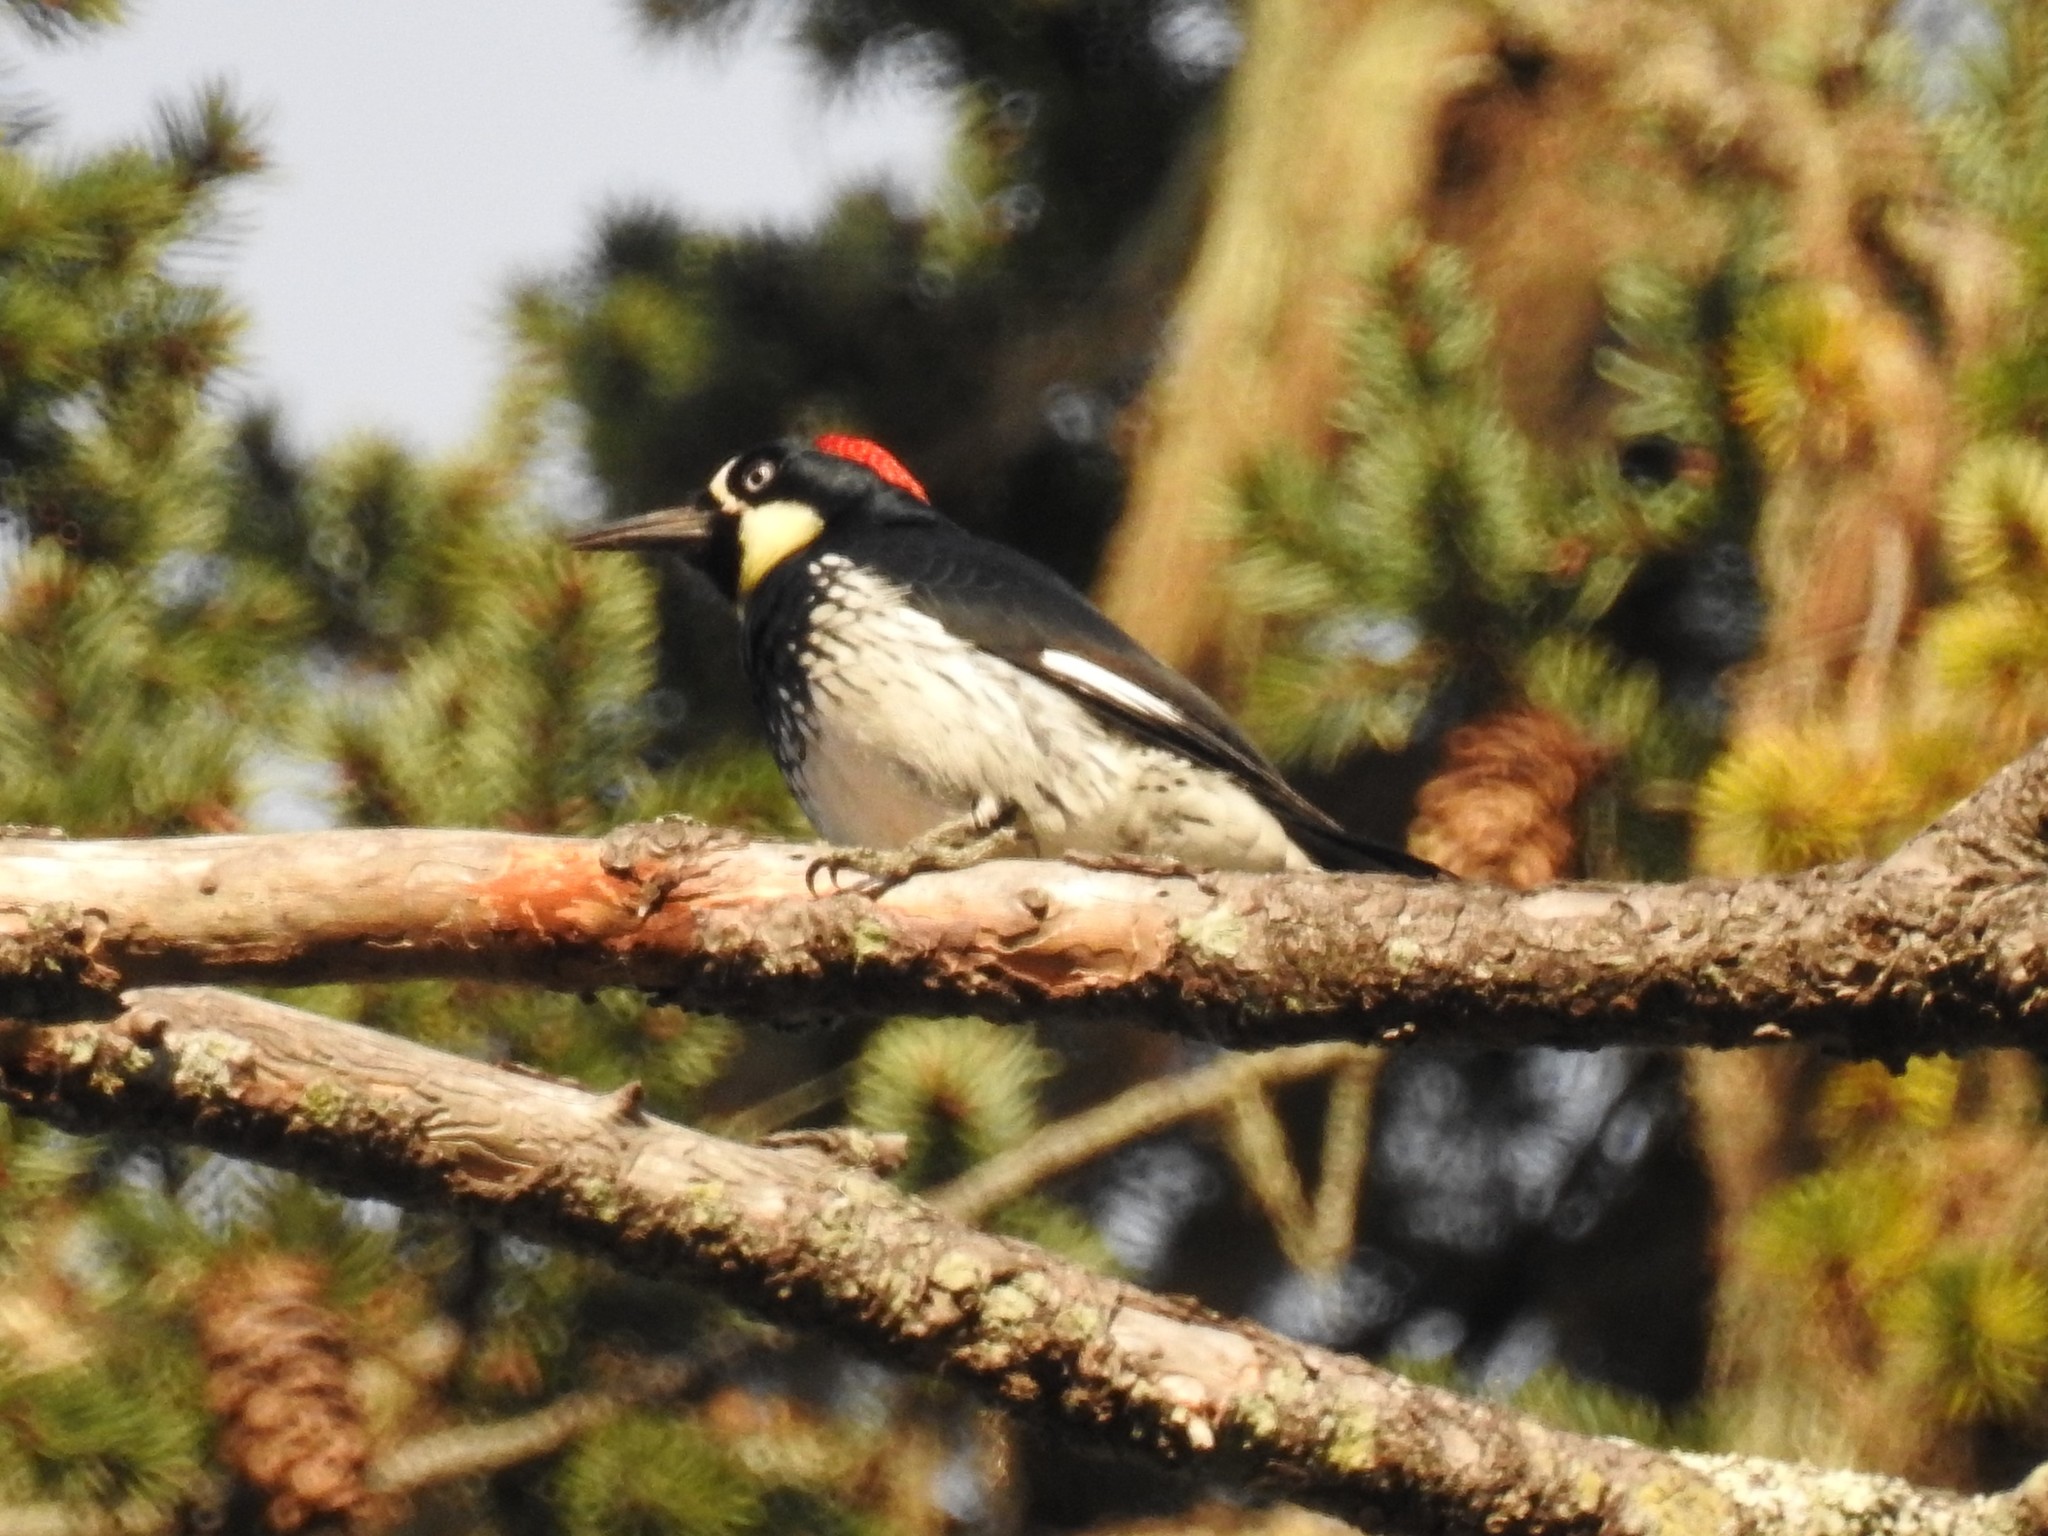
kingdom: Animalia
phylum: Chordata
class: Aves
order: Piciformes
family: Picidae
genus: Melanerpes
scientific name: Melanerpes formicivorus
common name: Acorn woodpecker
